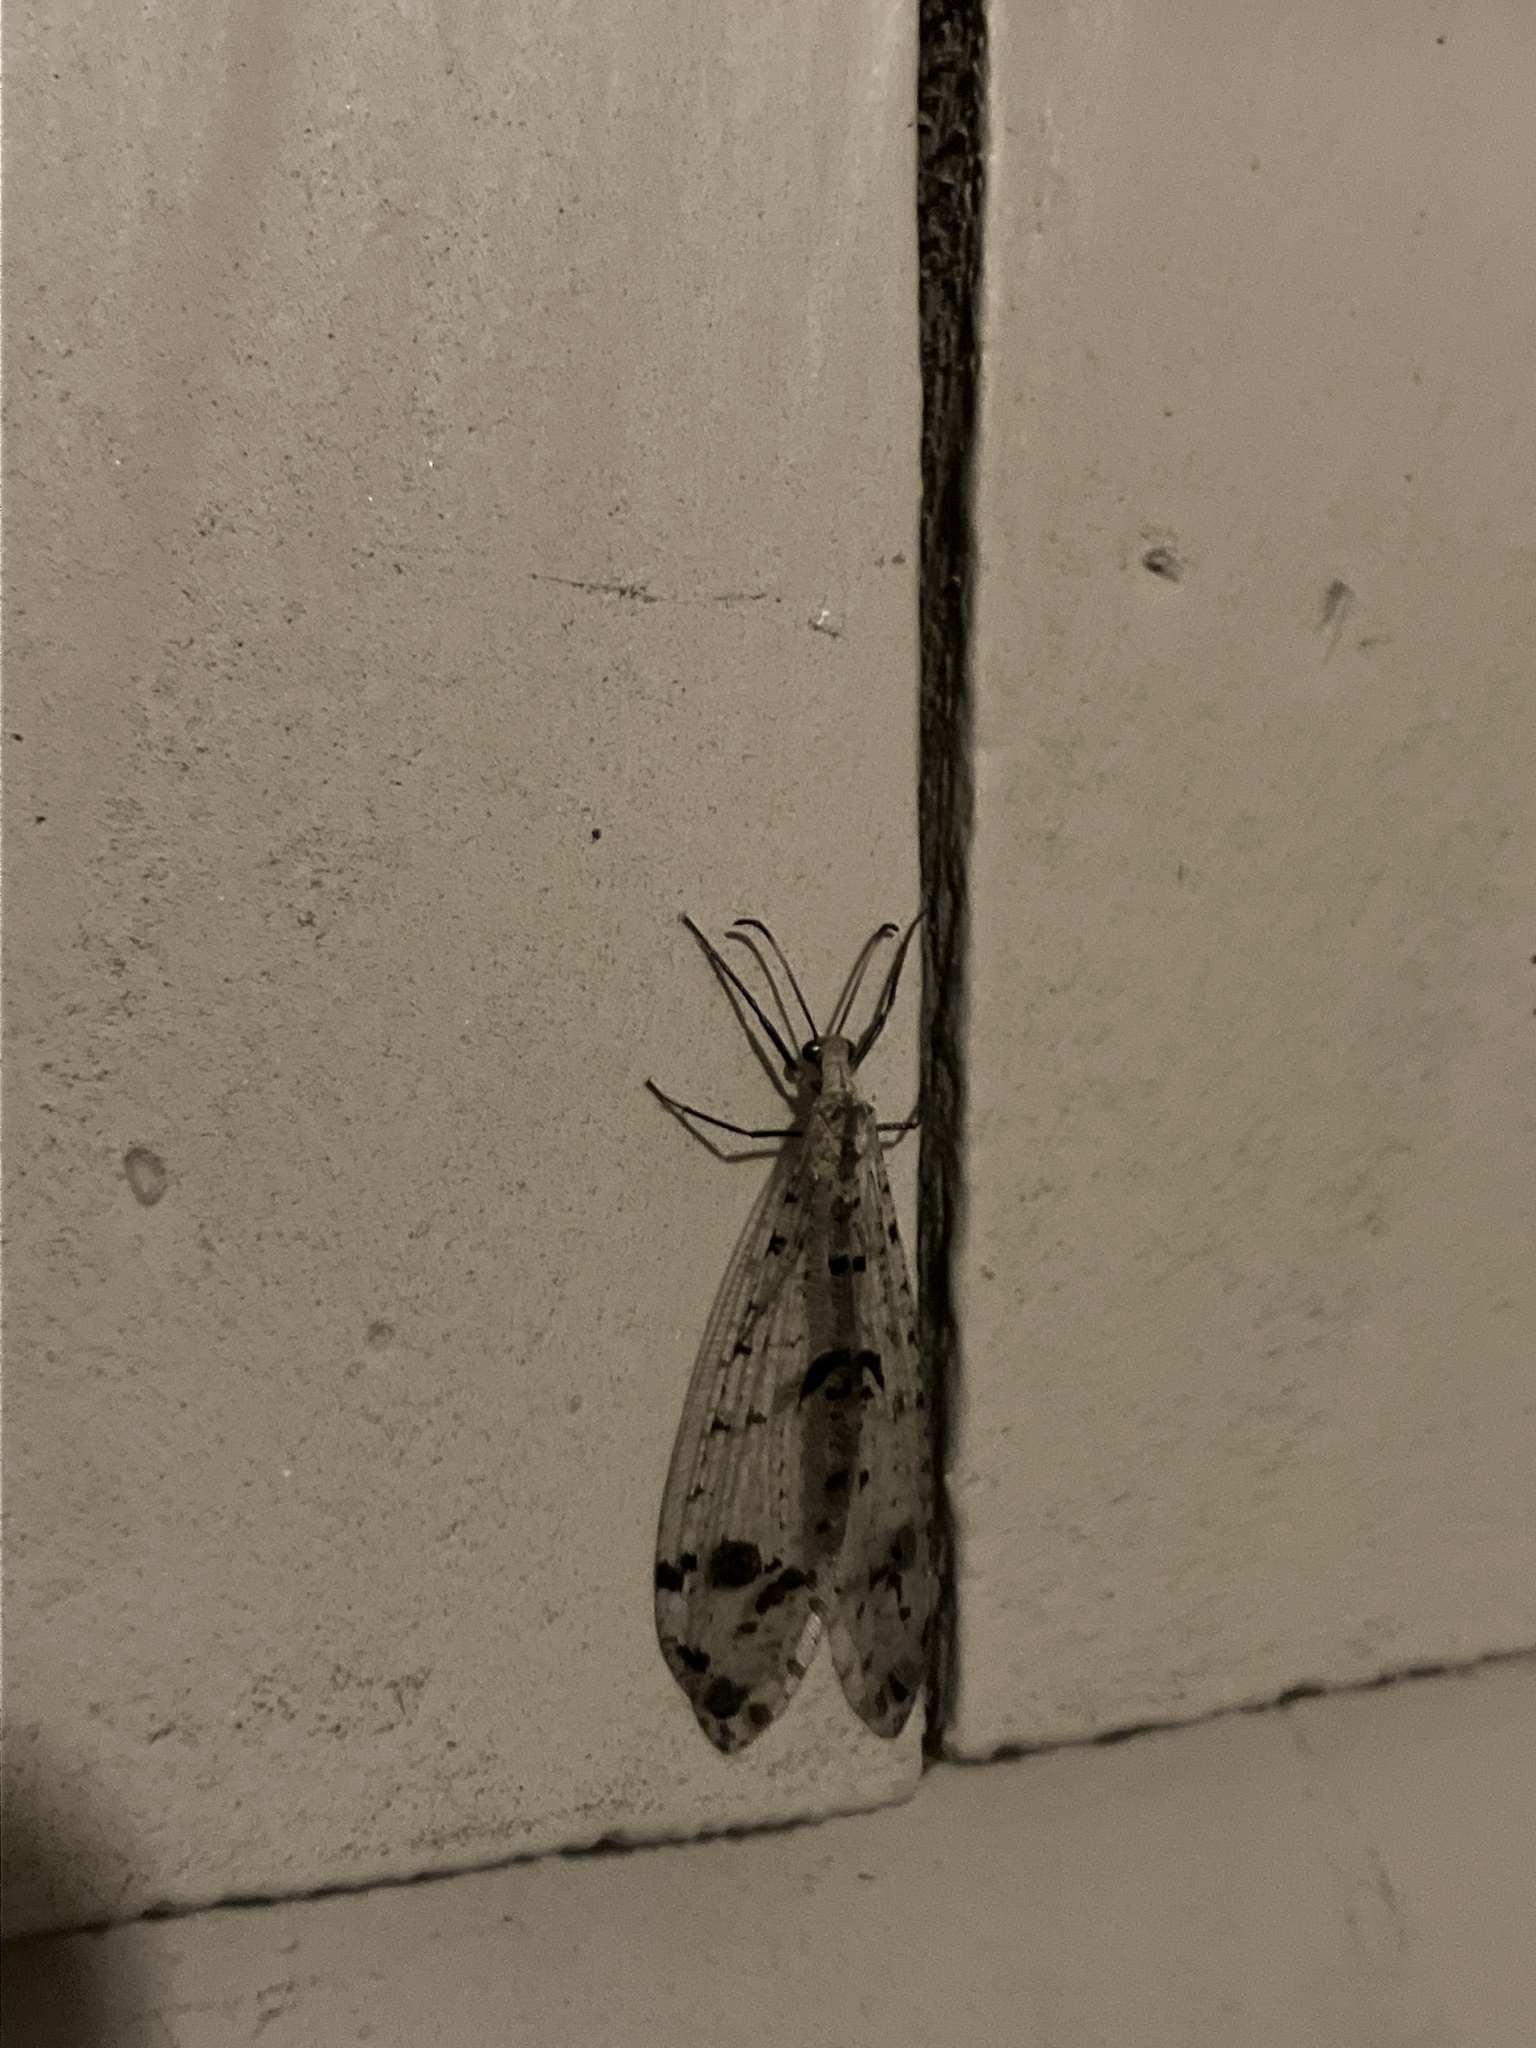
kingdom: Animalia
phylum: Arthropoda
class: Insecta
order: Neuroptera
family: Myrmeleontidae
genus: Dendroleon
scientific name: Dendroleon obsoletus
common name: Eastern spotted-winged antlion
